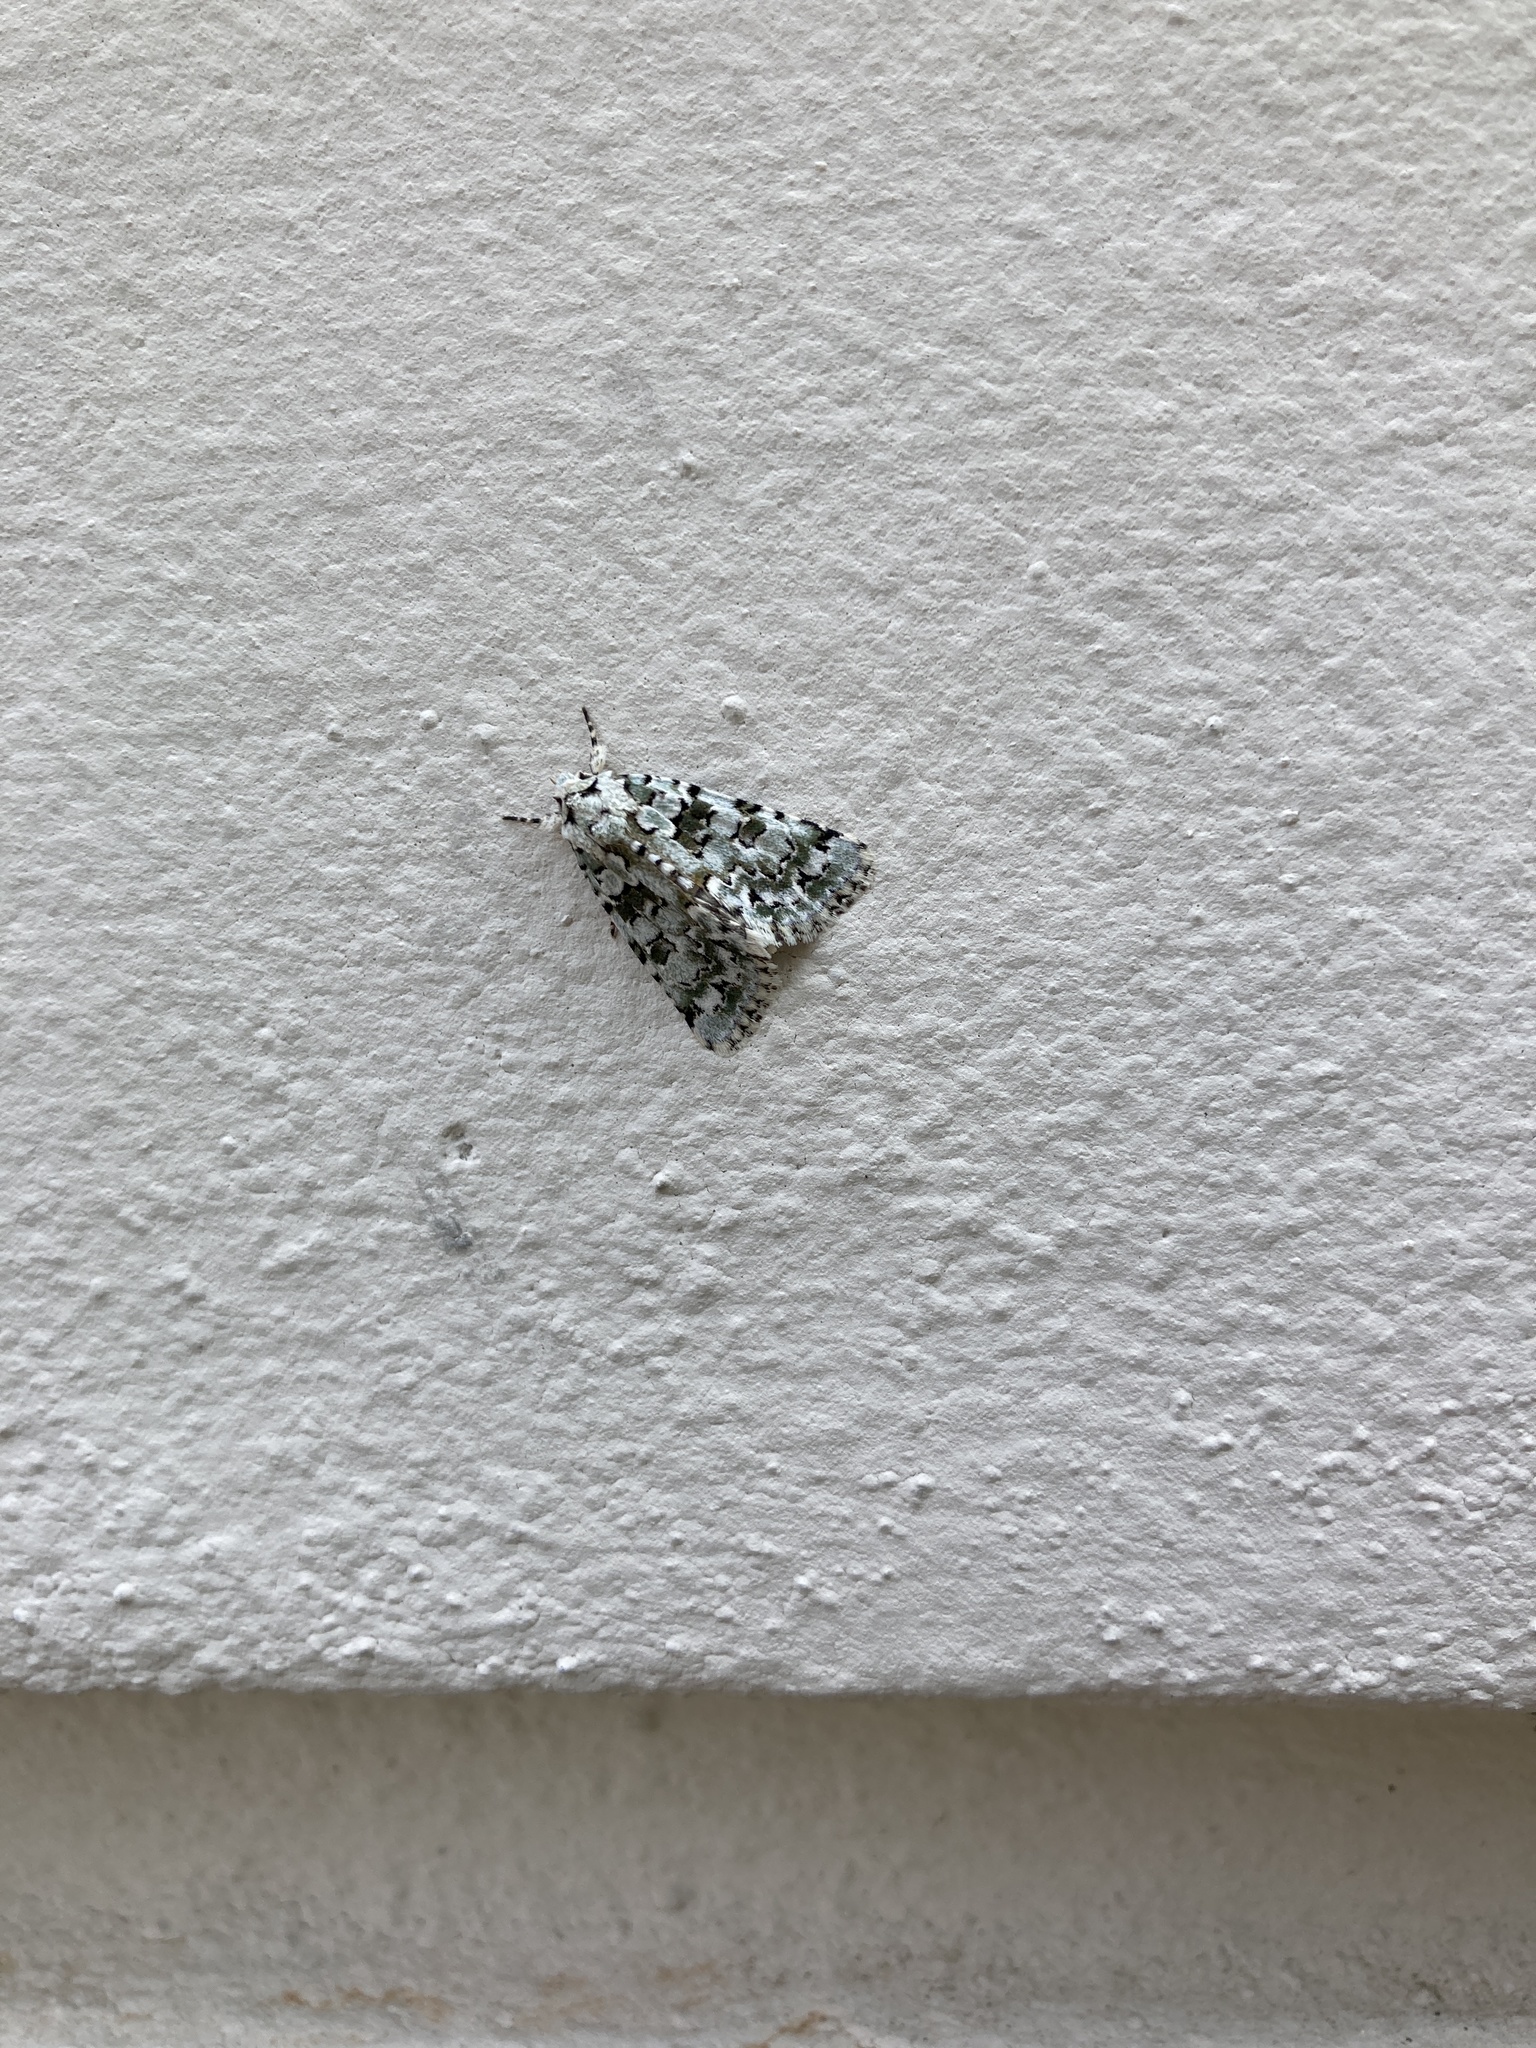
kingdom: Animalia
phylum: Arthropoda
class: Insecta
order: Lepidoptera
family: Noctuidae
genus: Nyctobrya
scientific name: Nyctobrya muralis
